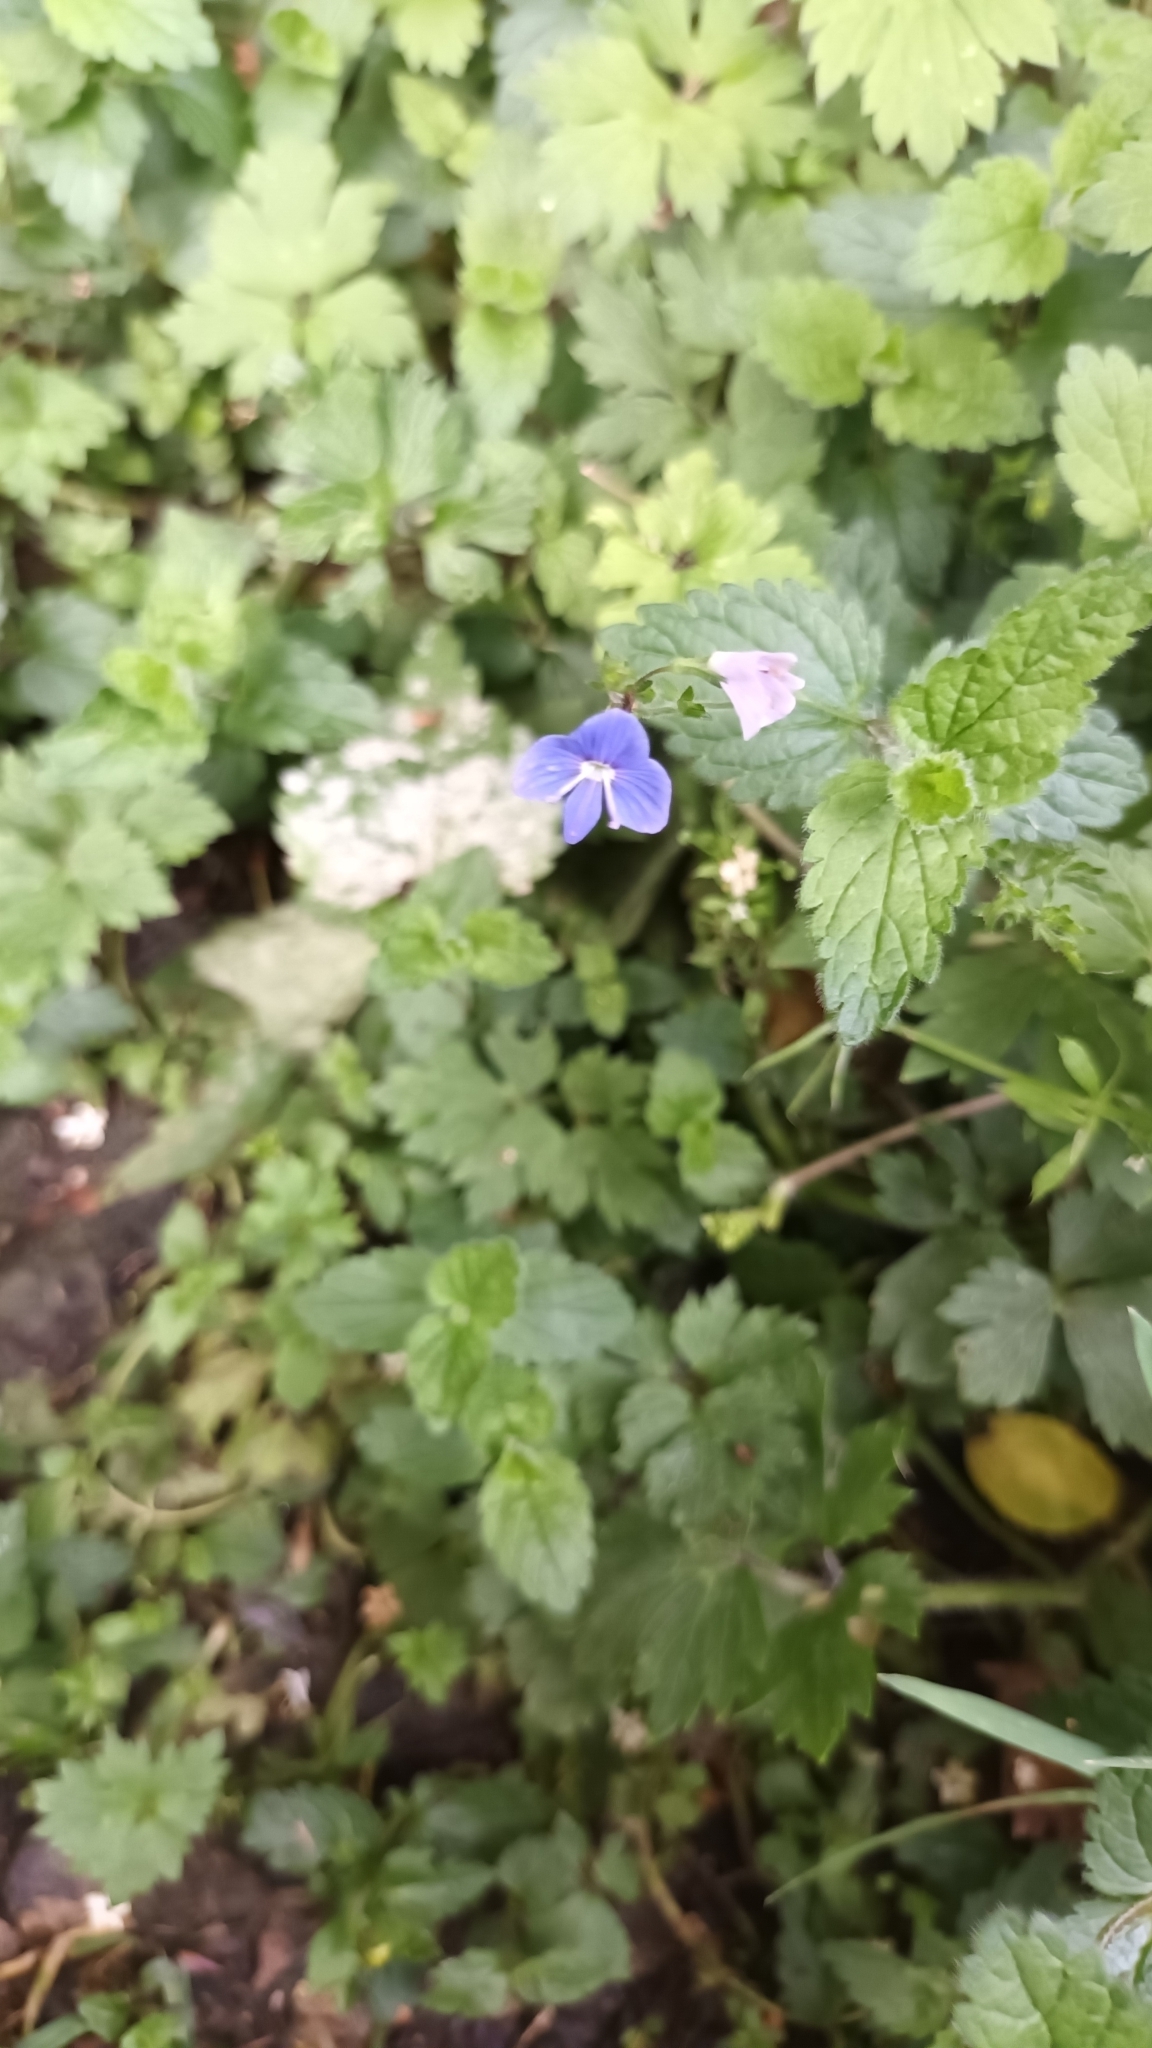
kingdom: Plantae
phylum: Tracheophyta
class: Magnoliopsida
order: Lamiales
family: Plantaginaceae
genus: Veronica
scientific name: Veronica chamaedrys
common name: Germander speedwell
